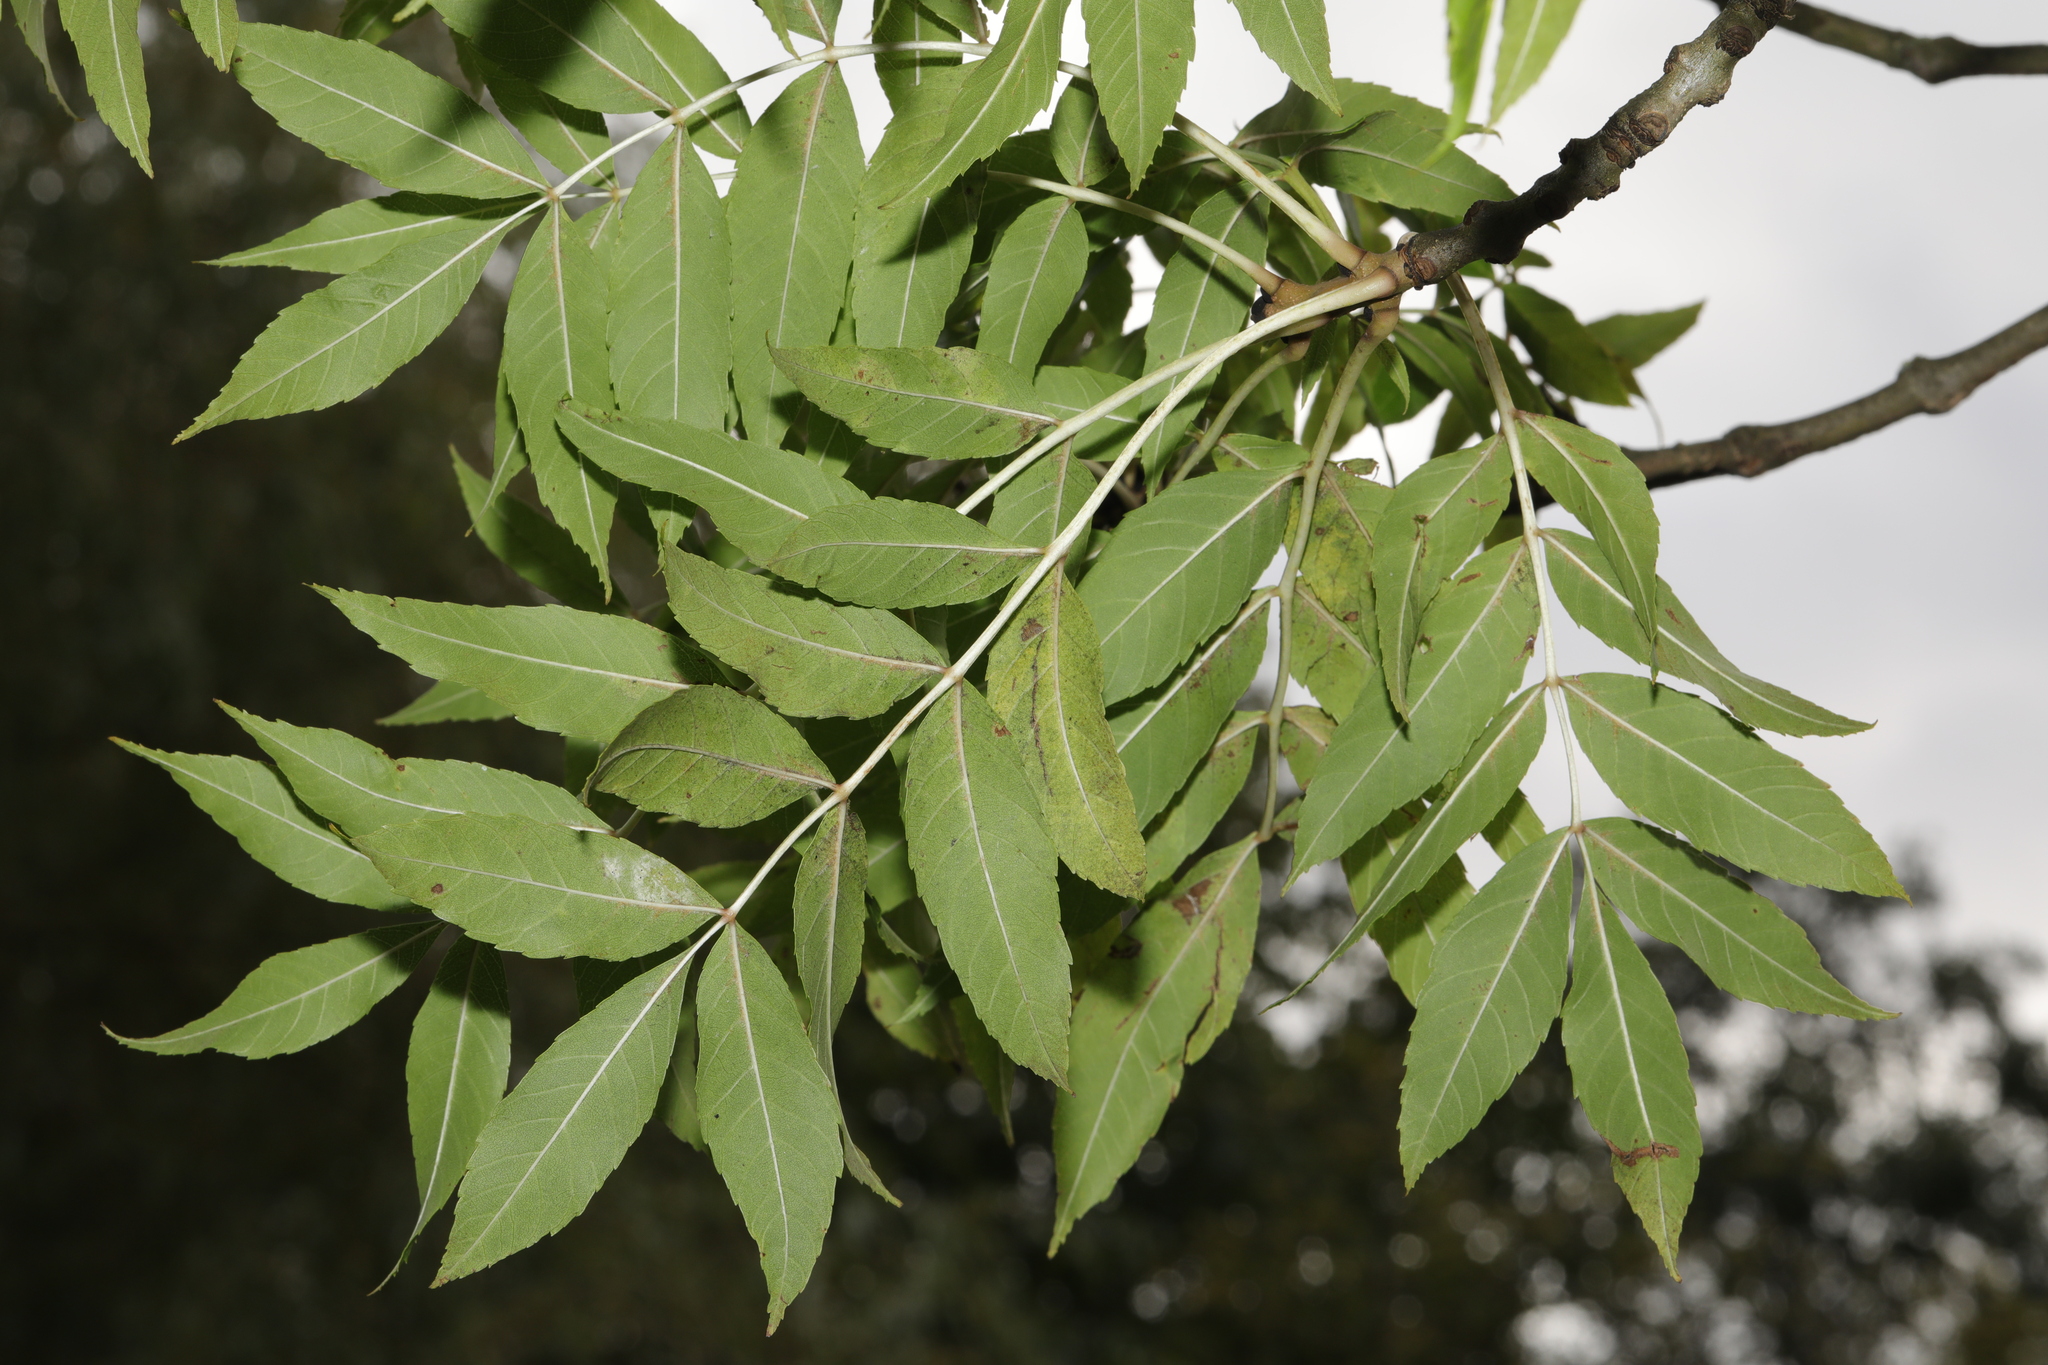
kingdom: Plantae
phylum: Tracheophyta
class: Magnoliopsida
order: Lamiales
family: Oleaceae
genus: Fraxinus
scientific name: Fraxinus excelsior
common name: European ash
